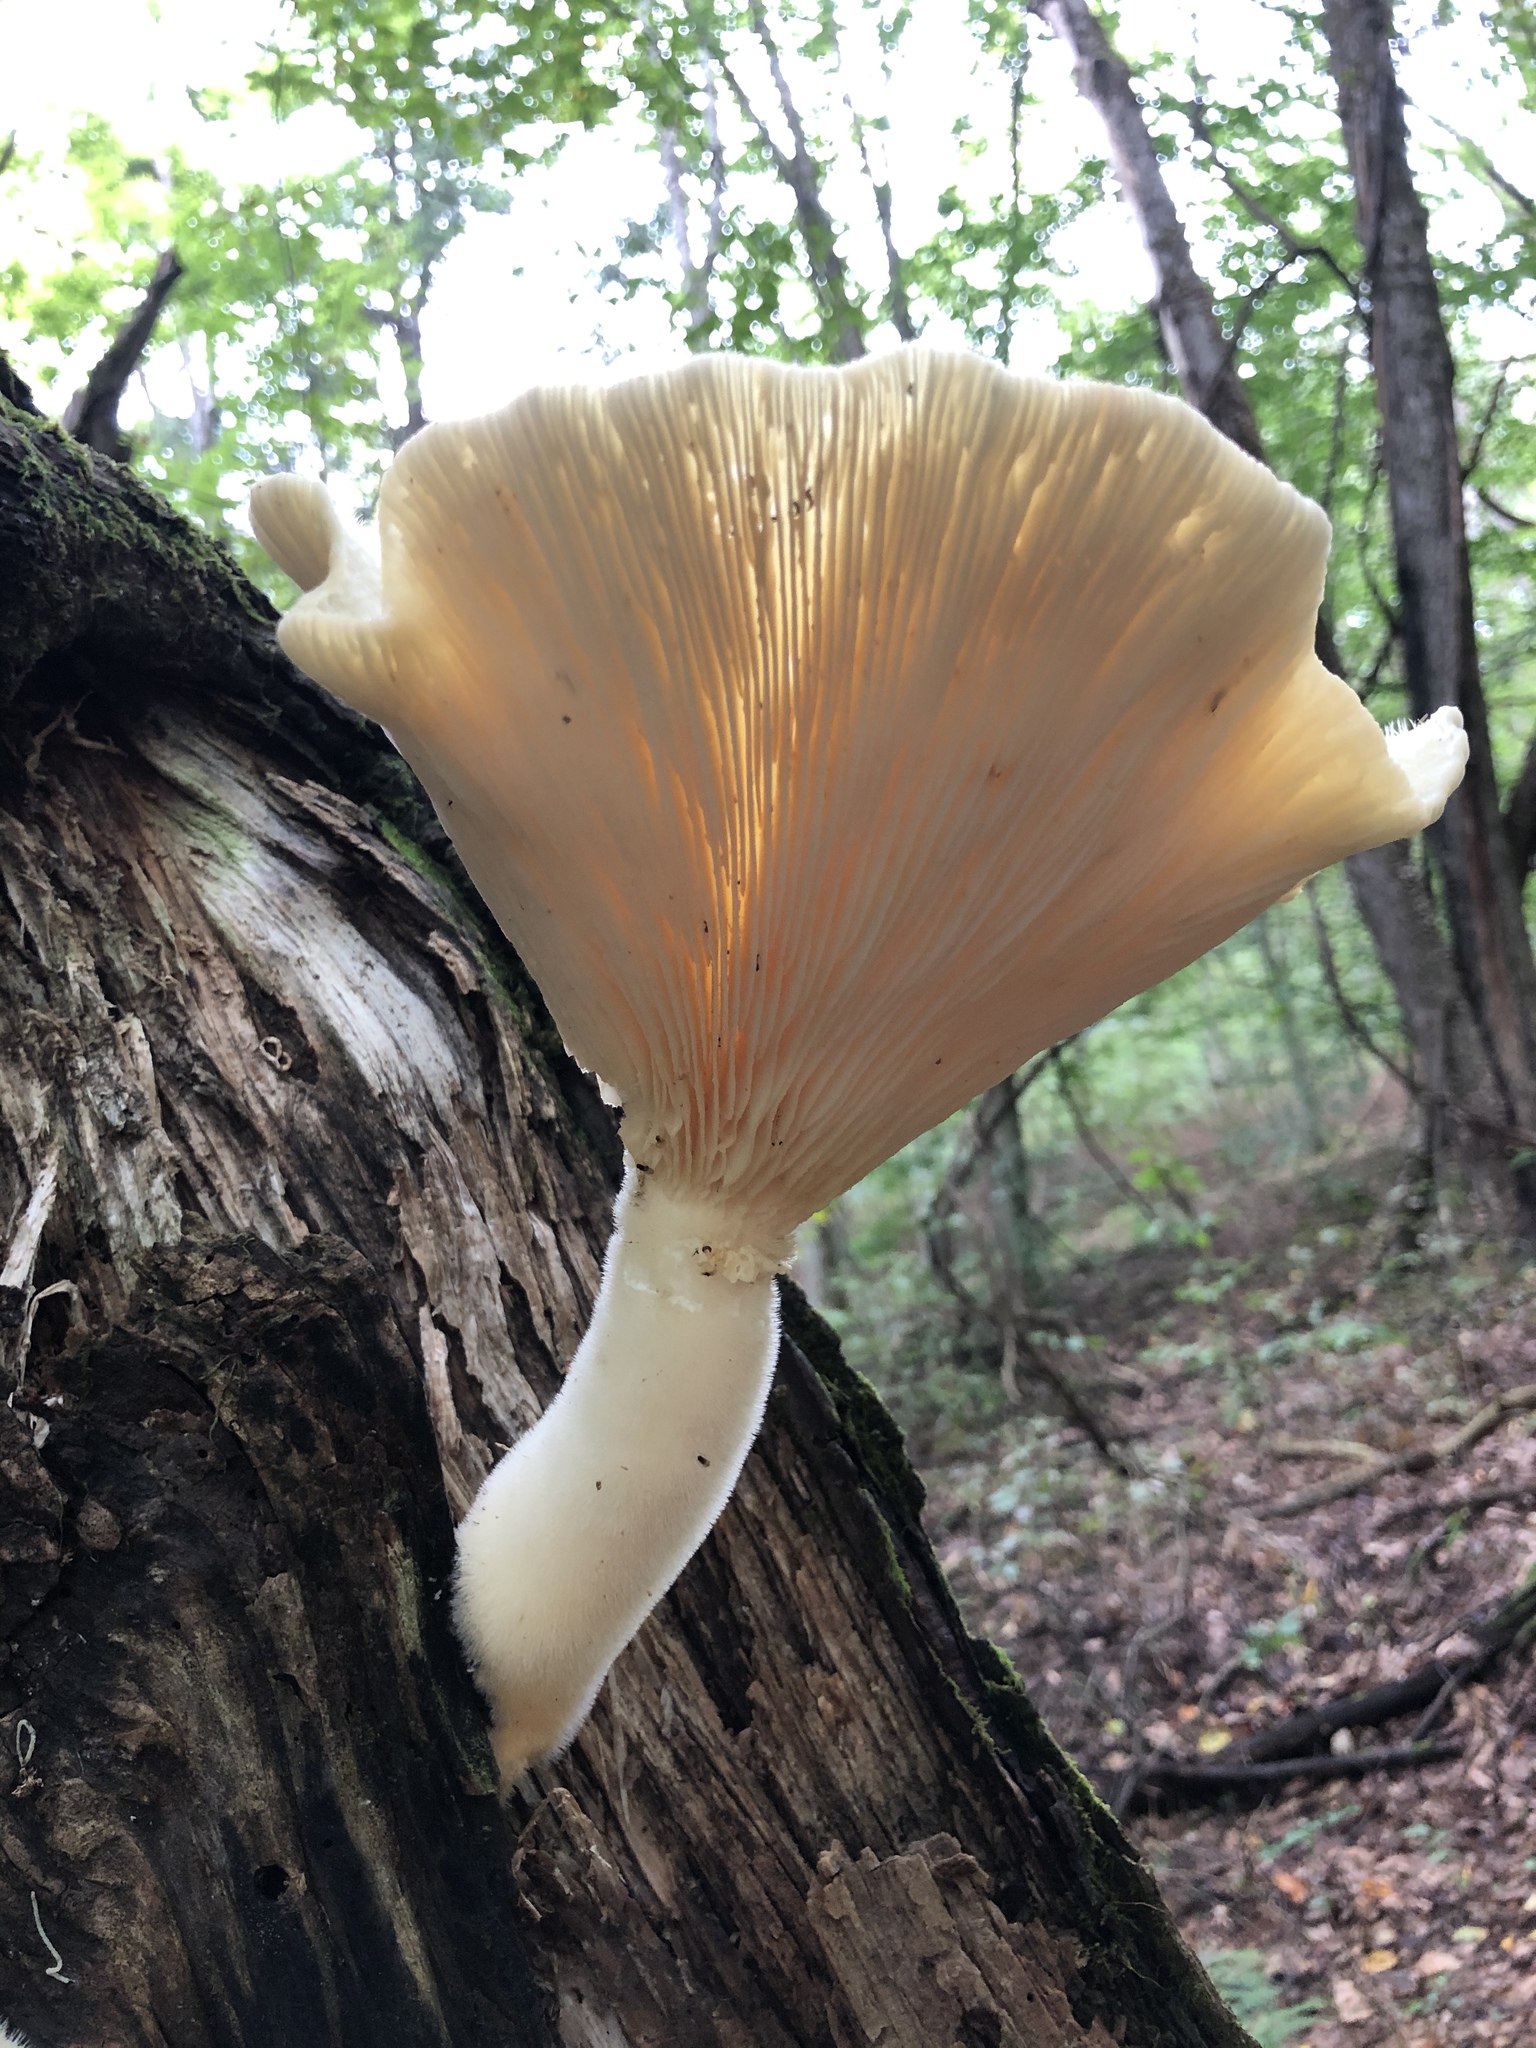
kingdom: Fungi
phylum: Basidiomycota
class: Agaricomycetes
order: Polyporales
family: Polyporaceae
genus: Lentinus
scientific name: Lentinus levis
